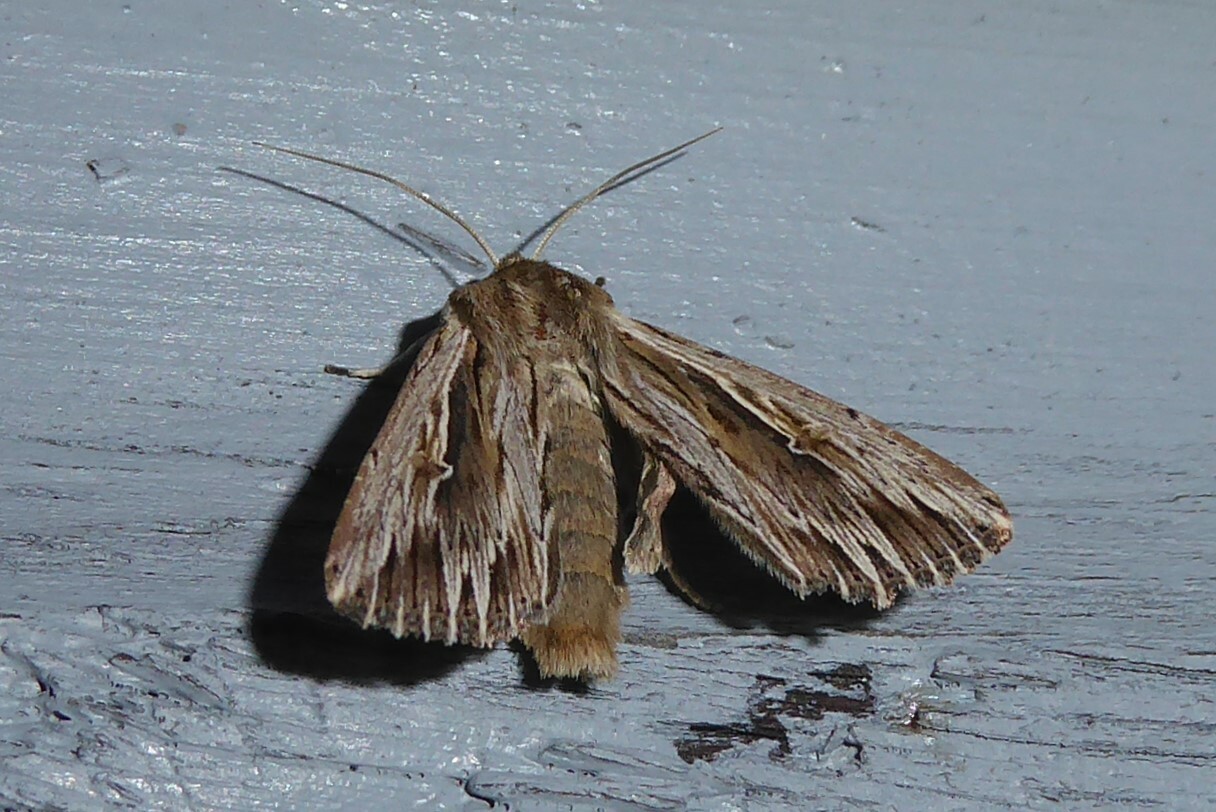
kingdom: Animalia
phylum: Arthropoda
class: Insecta
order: Lepidoptera
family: Noctuidae
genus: Persectania
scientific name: Persectania aversa
